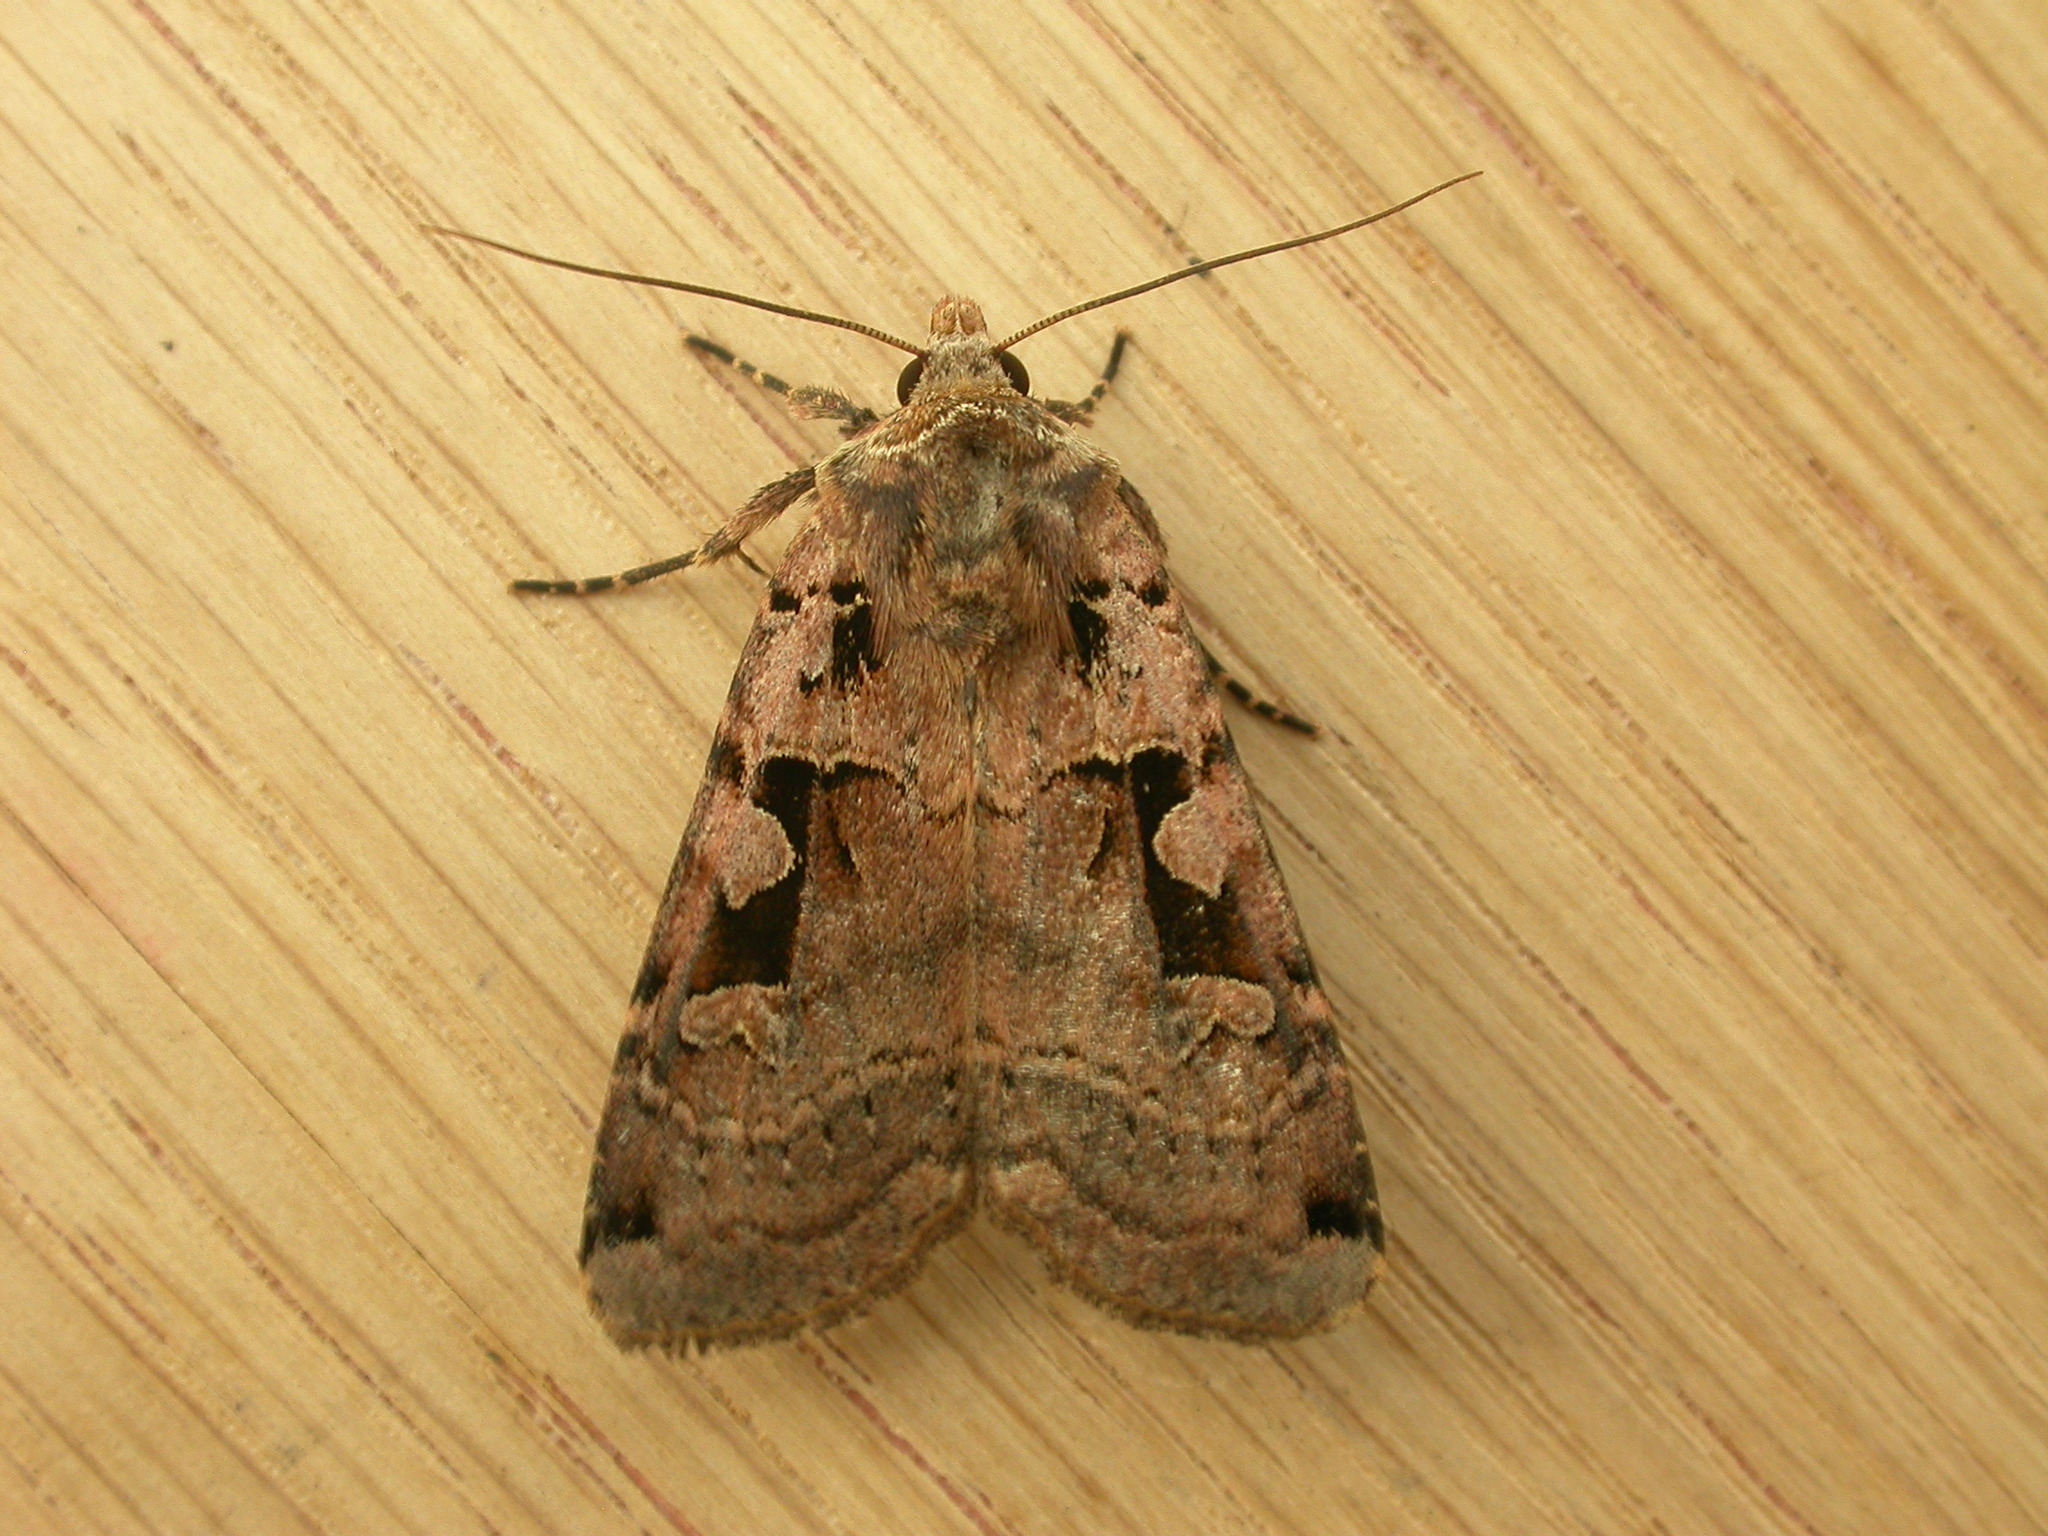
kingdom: Animalia
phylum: Arthropoda
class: Insecta
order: Lepidoptera
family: Noctuidae
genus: Xestia
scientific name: Xestia triangulum
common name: Double square-spot
